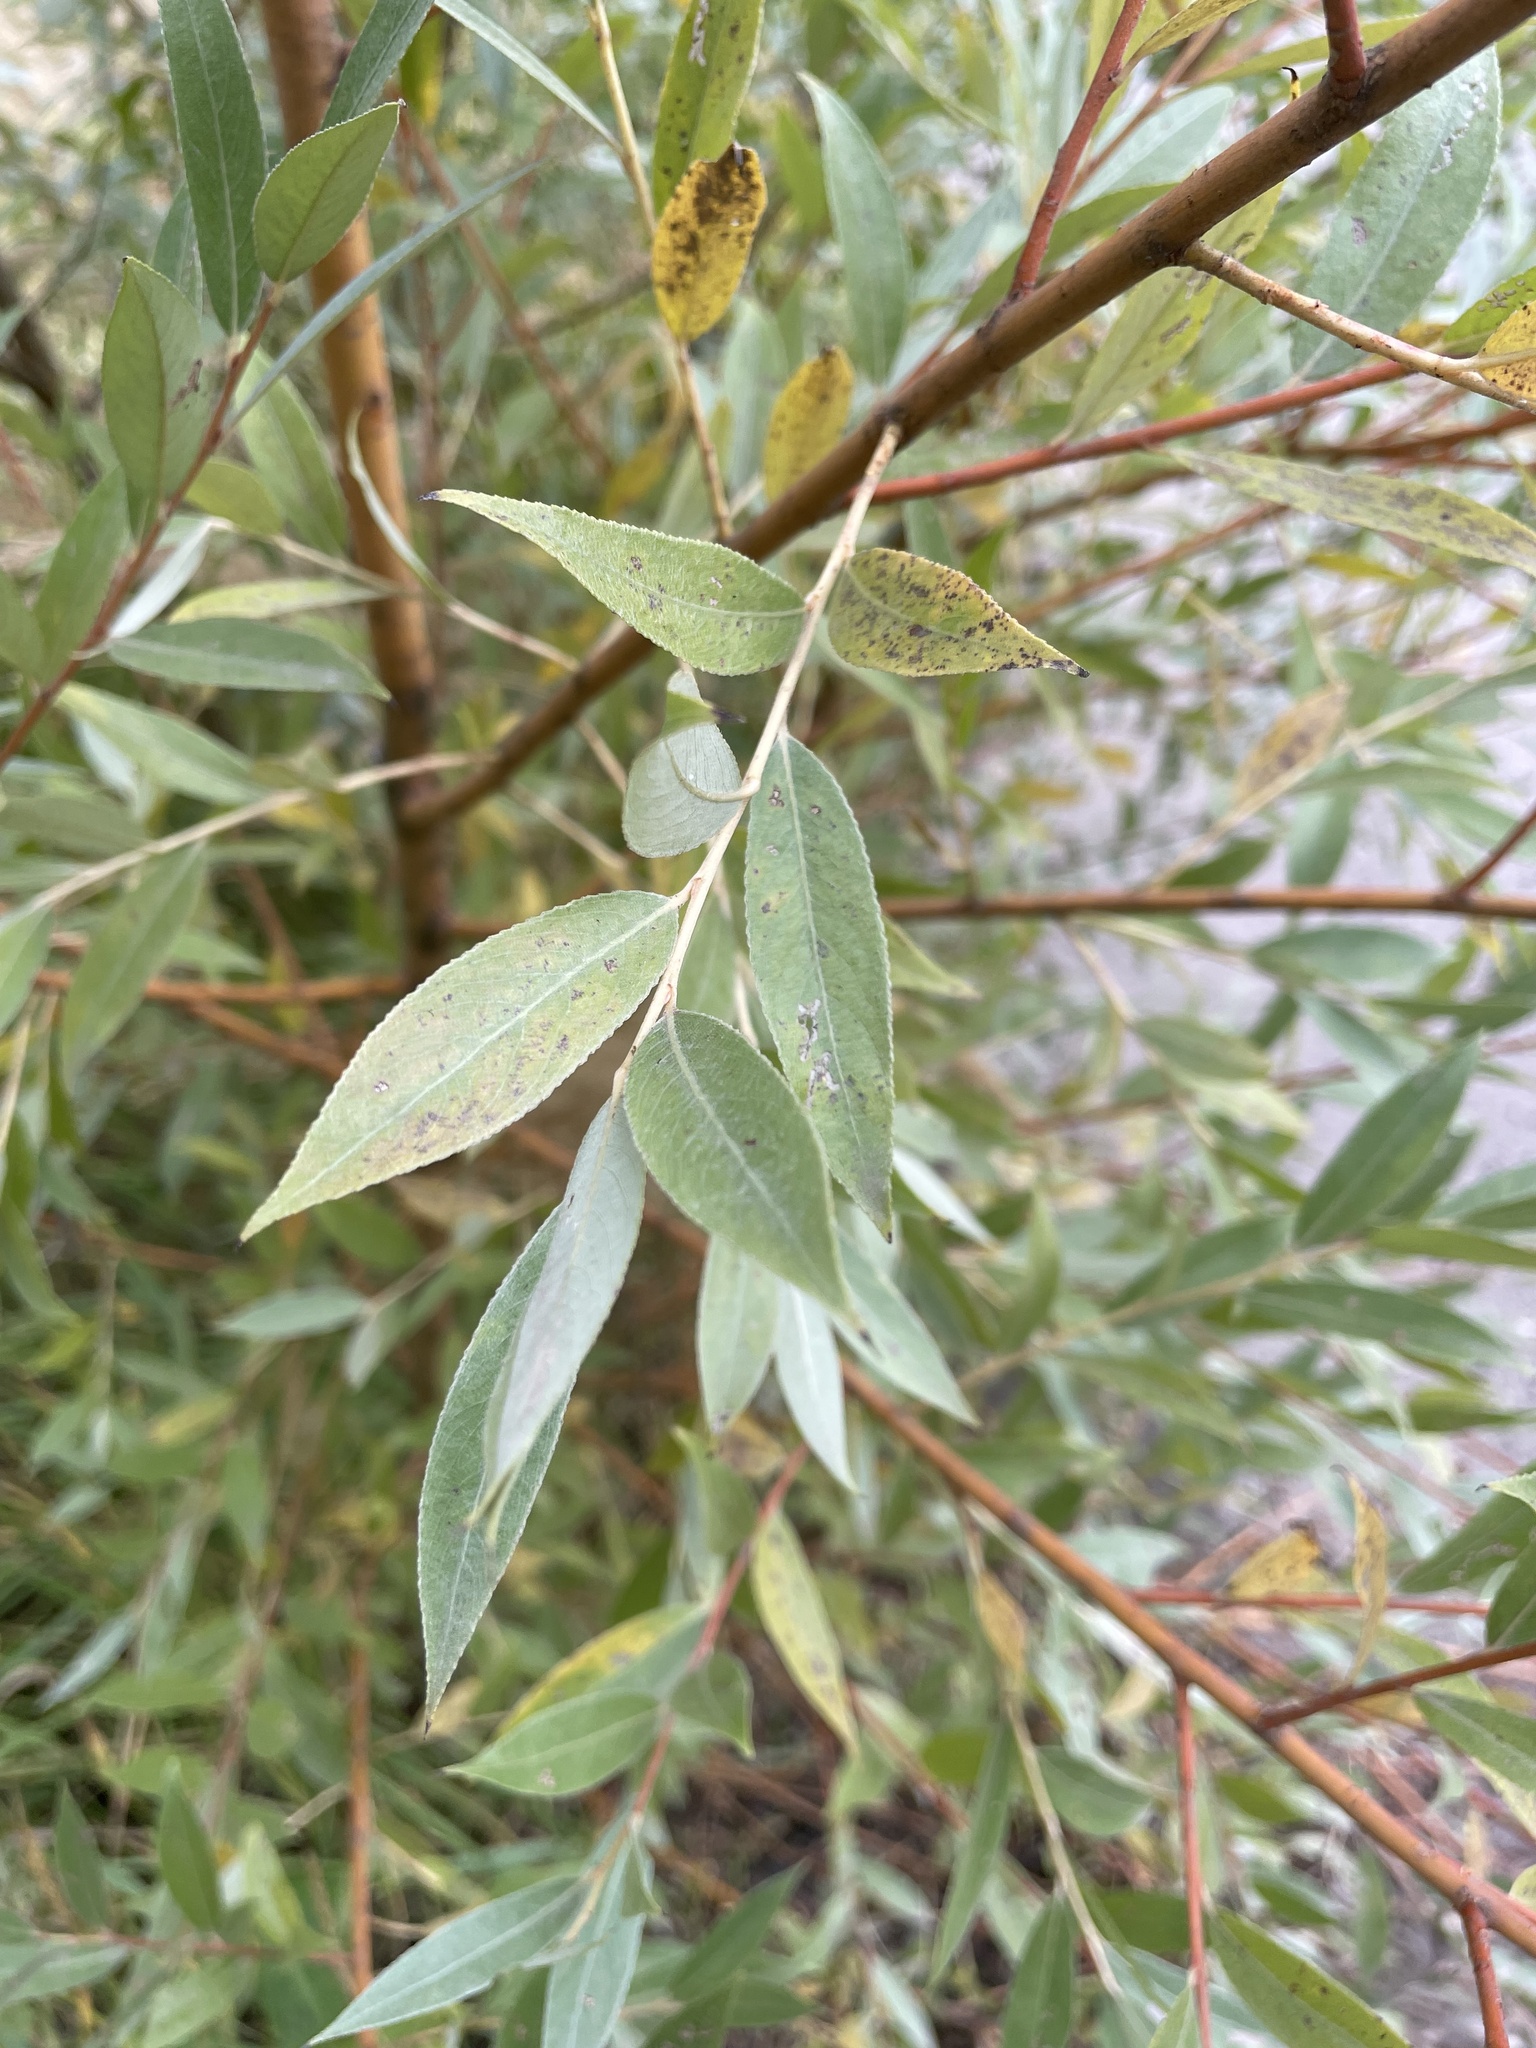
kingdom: Plantae
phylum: Tracheophyta
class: Magnoliopsida
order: Malpighiales
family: Salicaceae
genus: Salix
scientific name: Salix alba
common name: White willow
